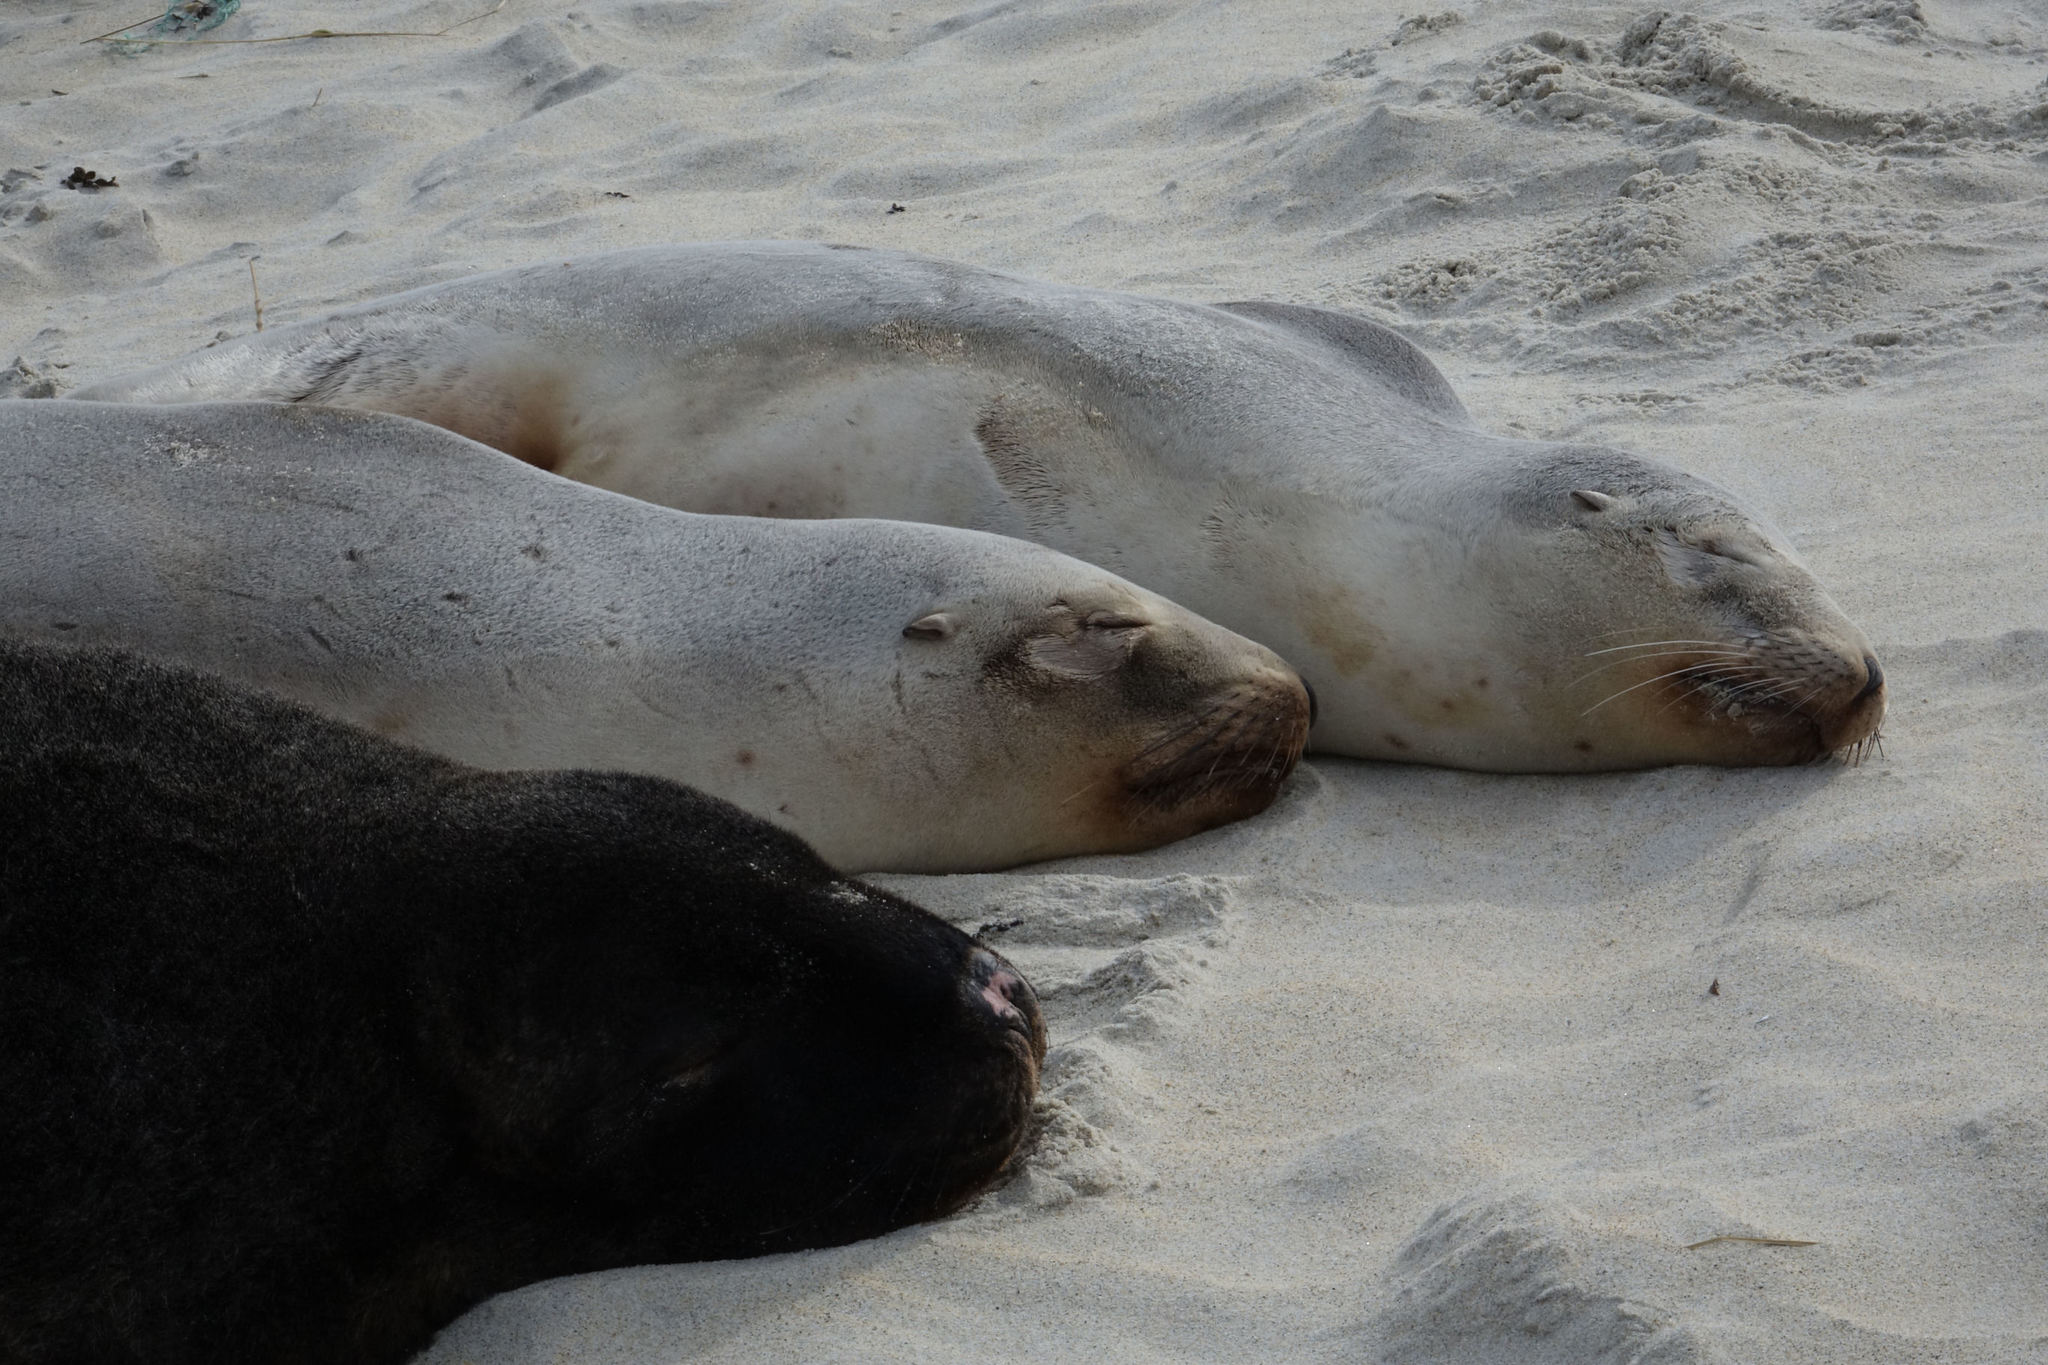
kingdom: Animalia
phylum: Chordata
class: Mammalia
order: Carnivora
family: Otariidae
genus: Phocarctos
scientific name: Phocarctos hookeri
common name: New zealand sea lion
